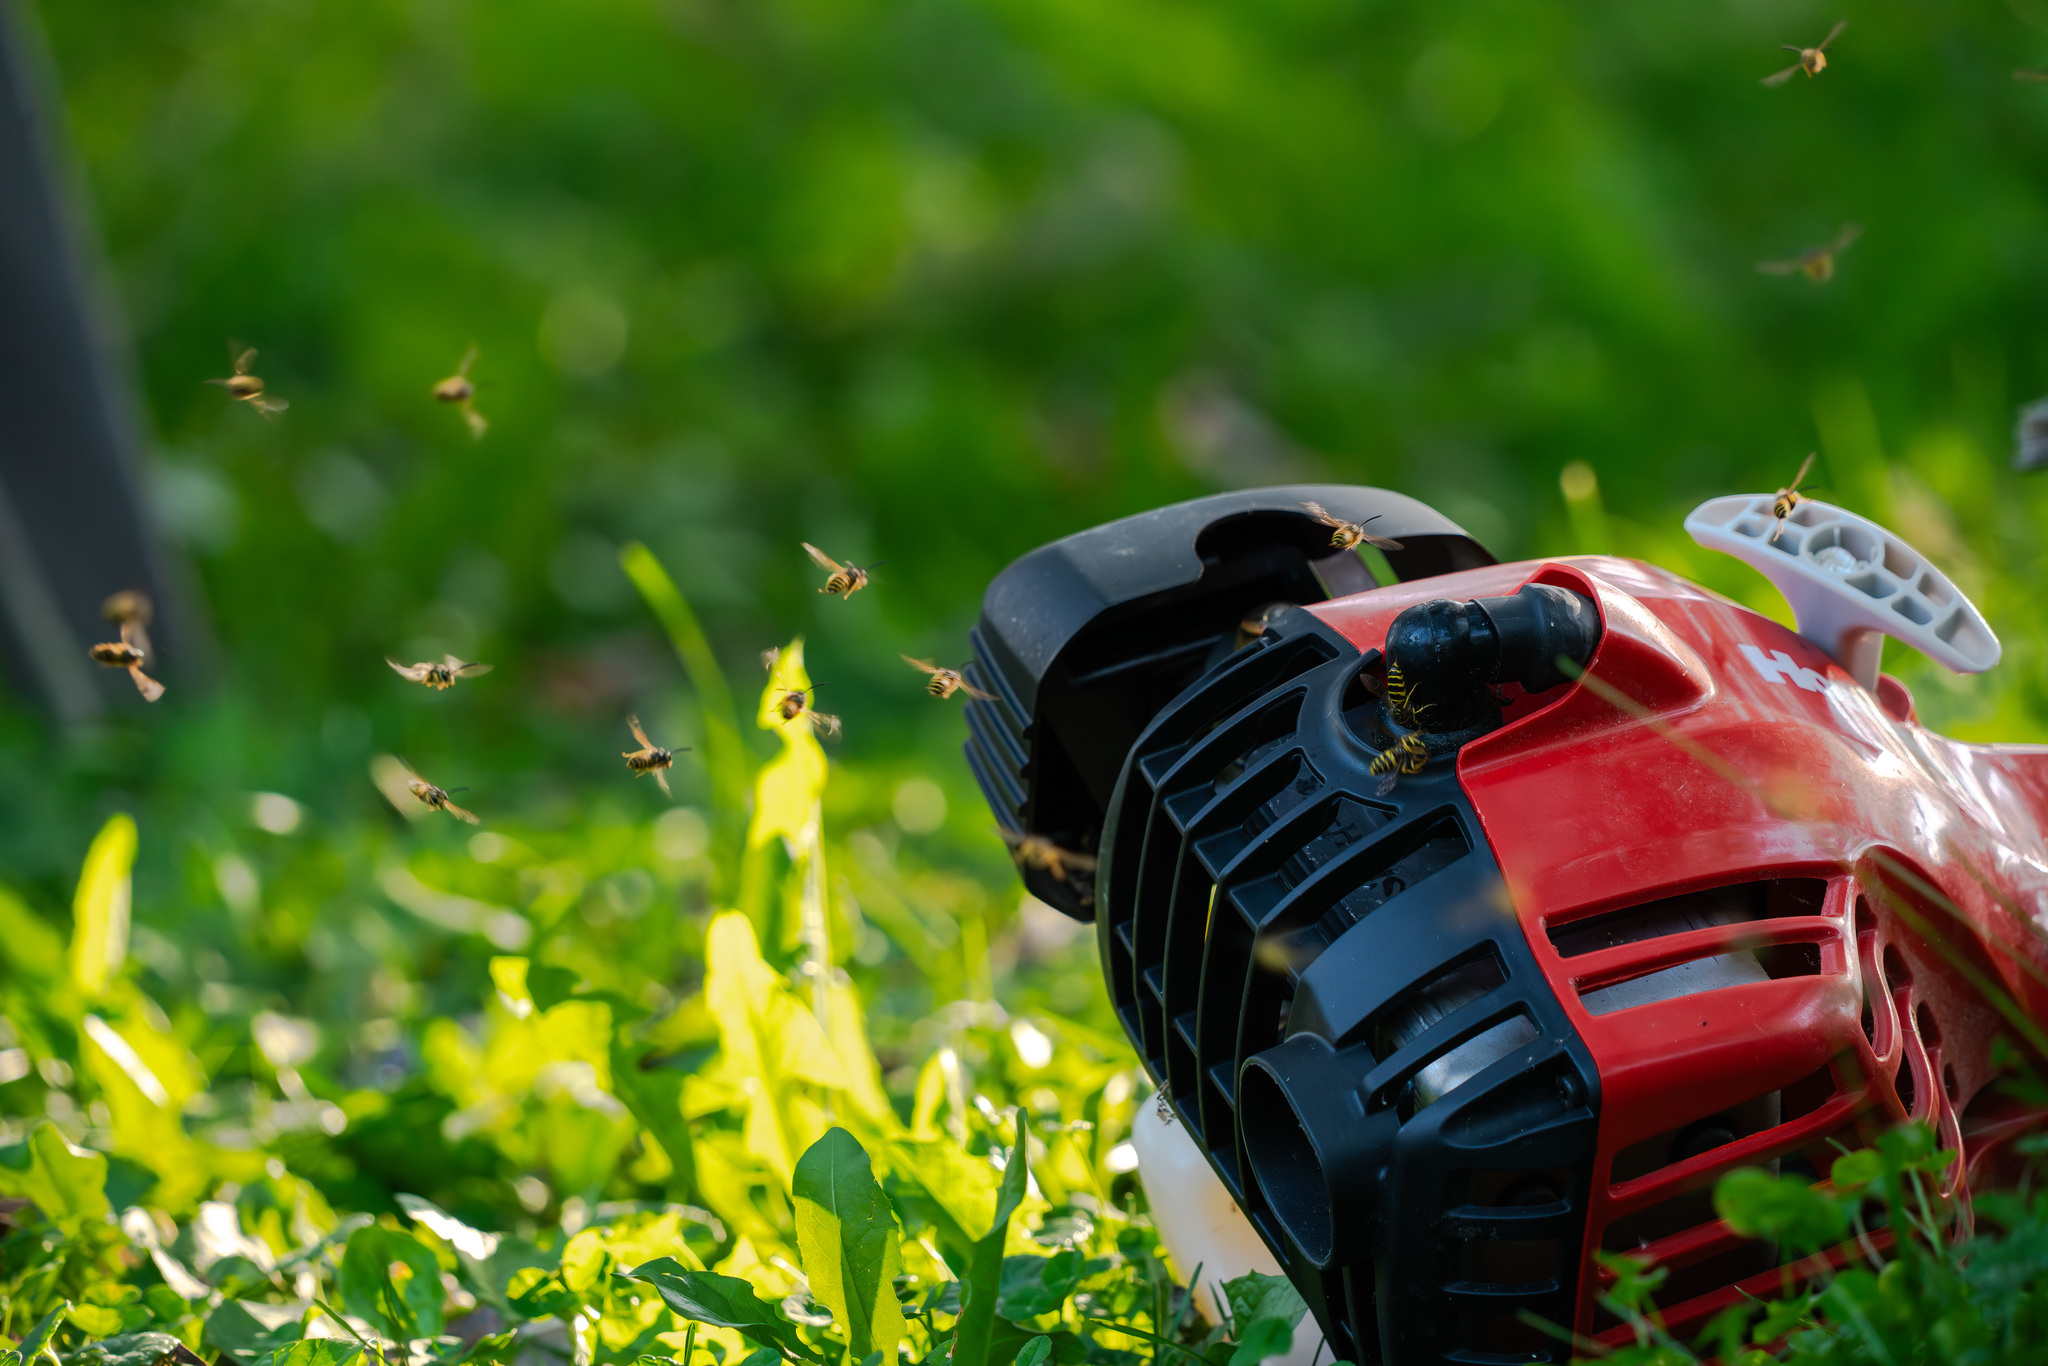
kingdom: Animalia
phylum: Arthropoda
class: Insecta
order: Hymenoptera
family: Vespidae
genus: Vespula
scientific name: Vespula maculifrons
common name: Eastern yellowjacket
